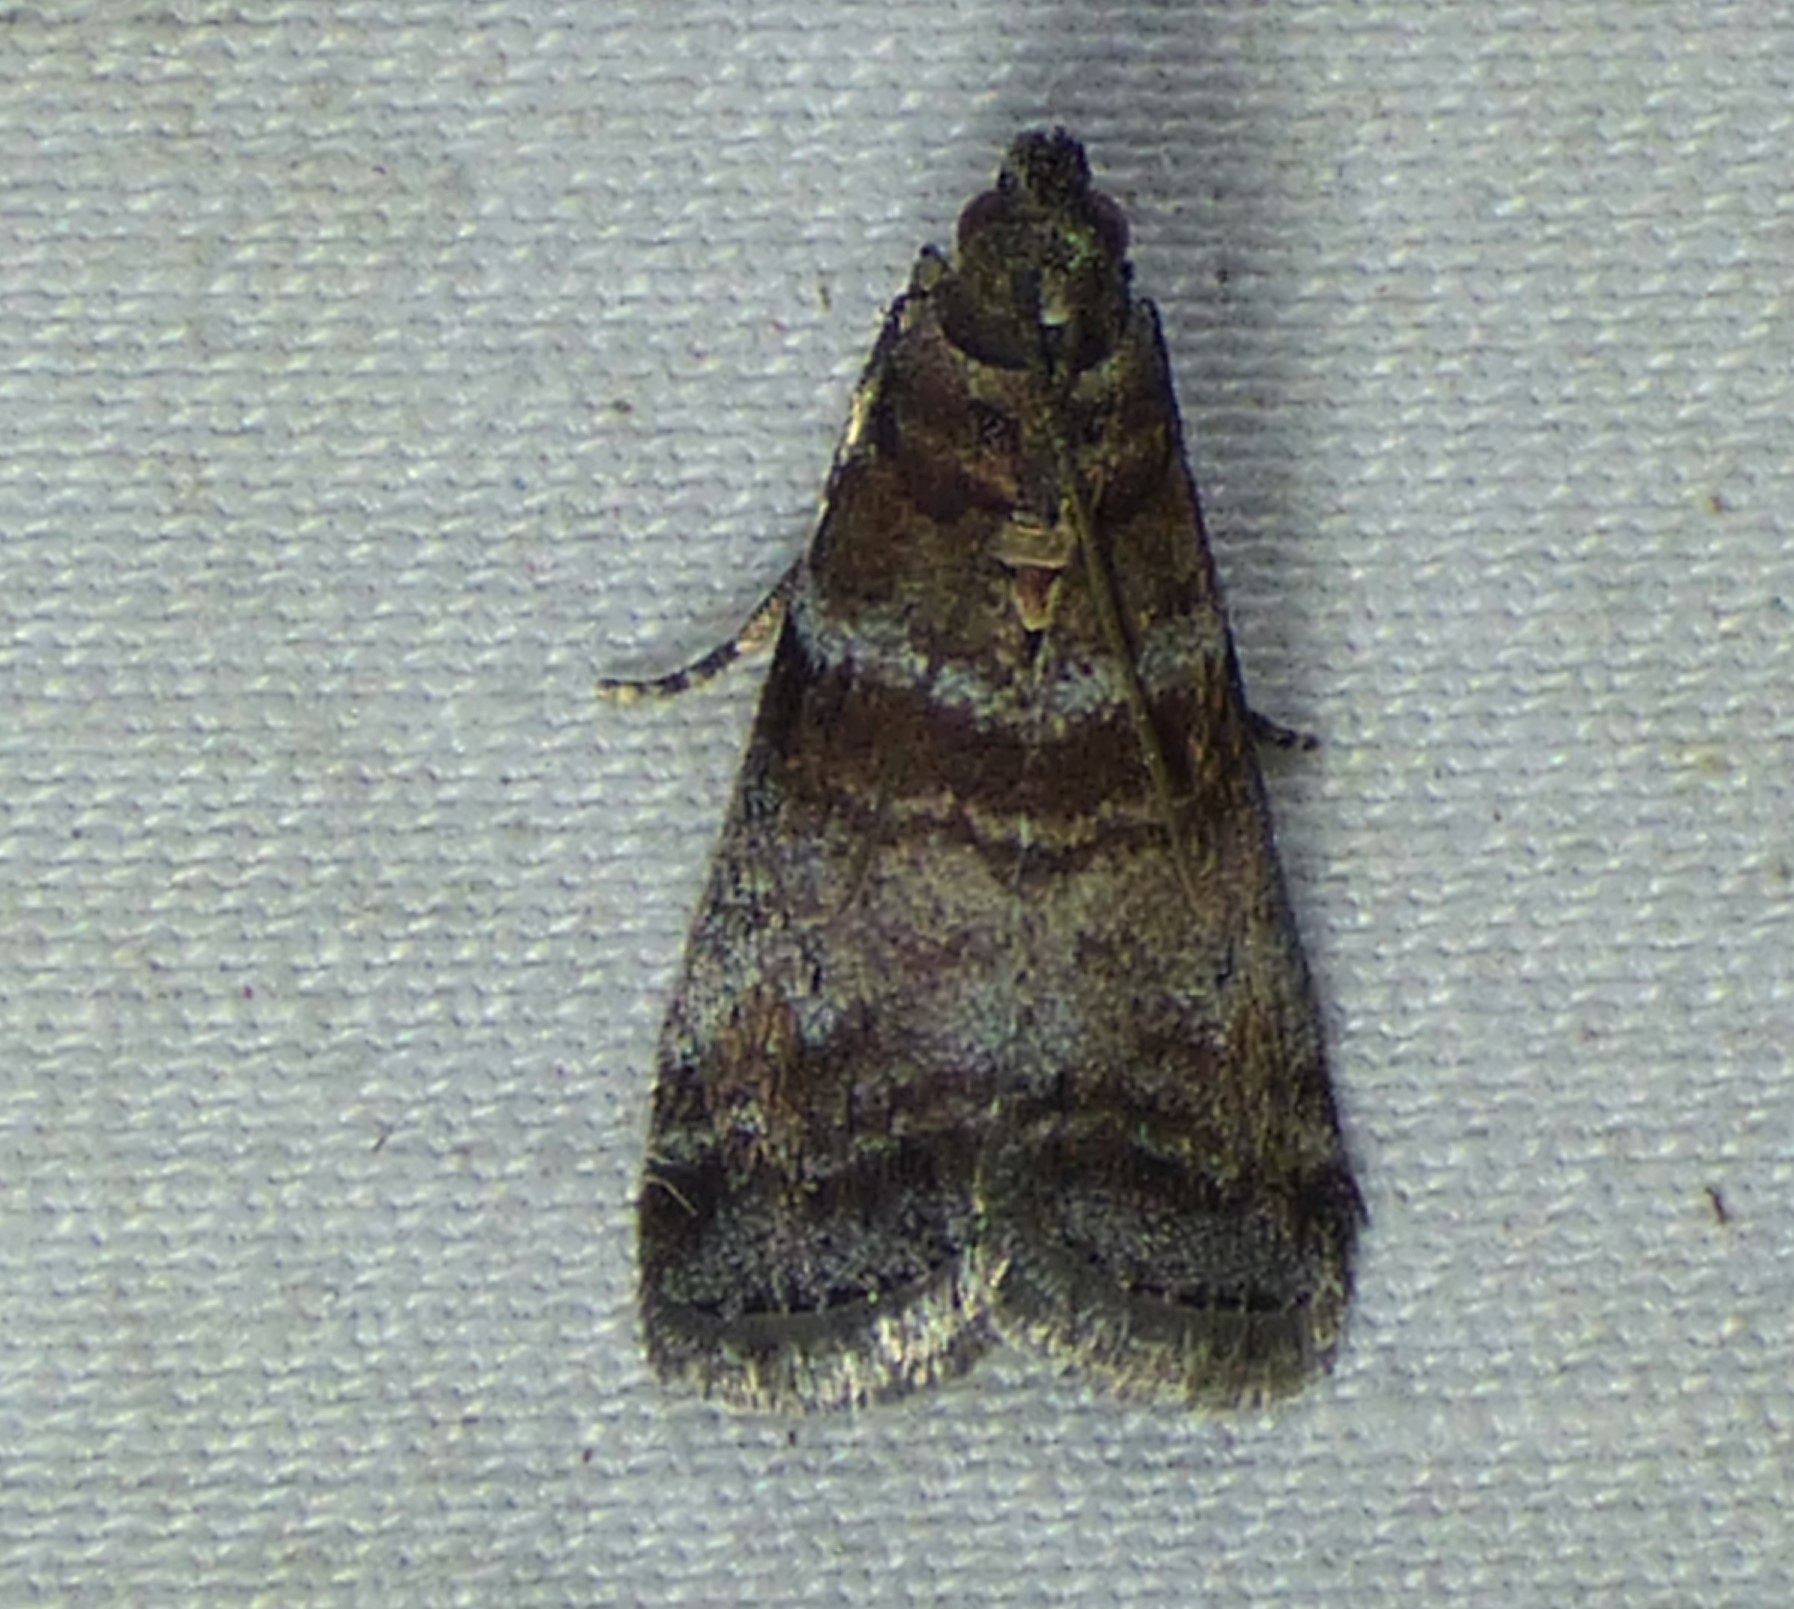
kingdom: Animalia
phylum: Arthropoda
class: Insecta
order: Lepidoptera
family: Pyralidae
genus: Sciota
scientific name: Sciota uvinella
